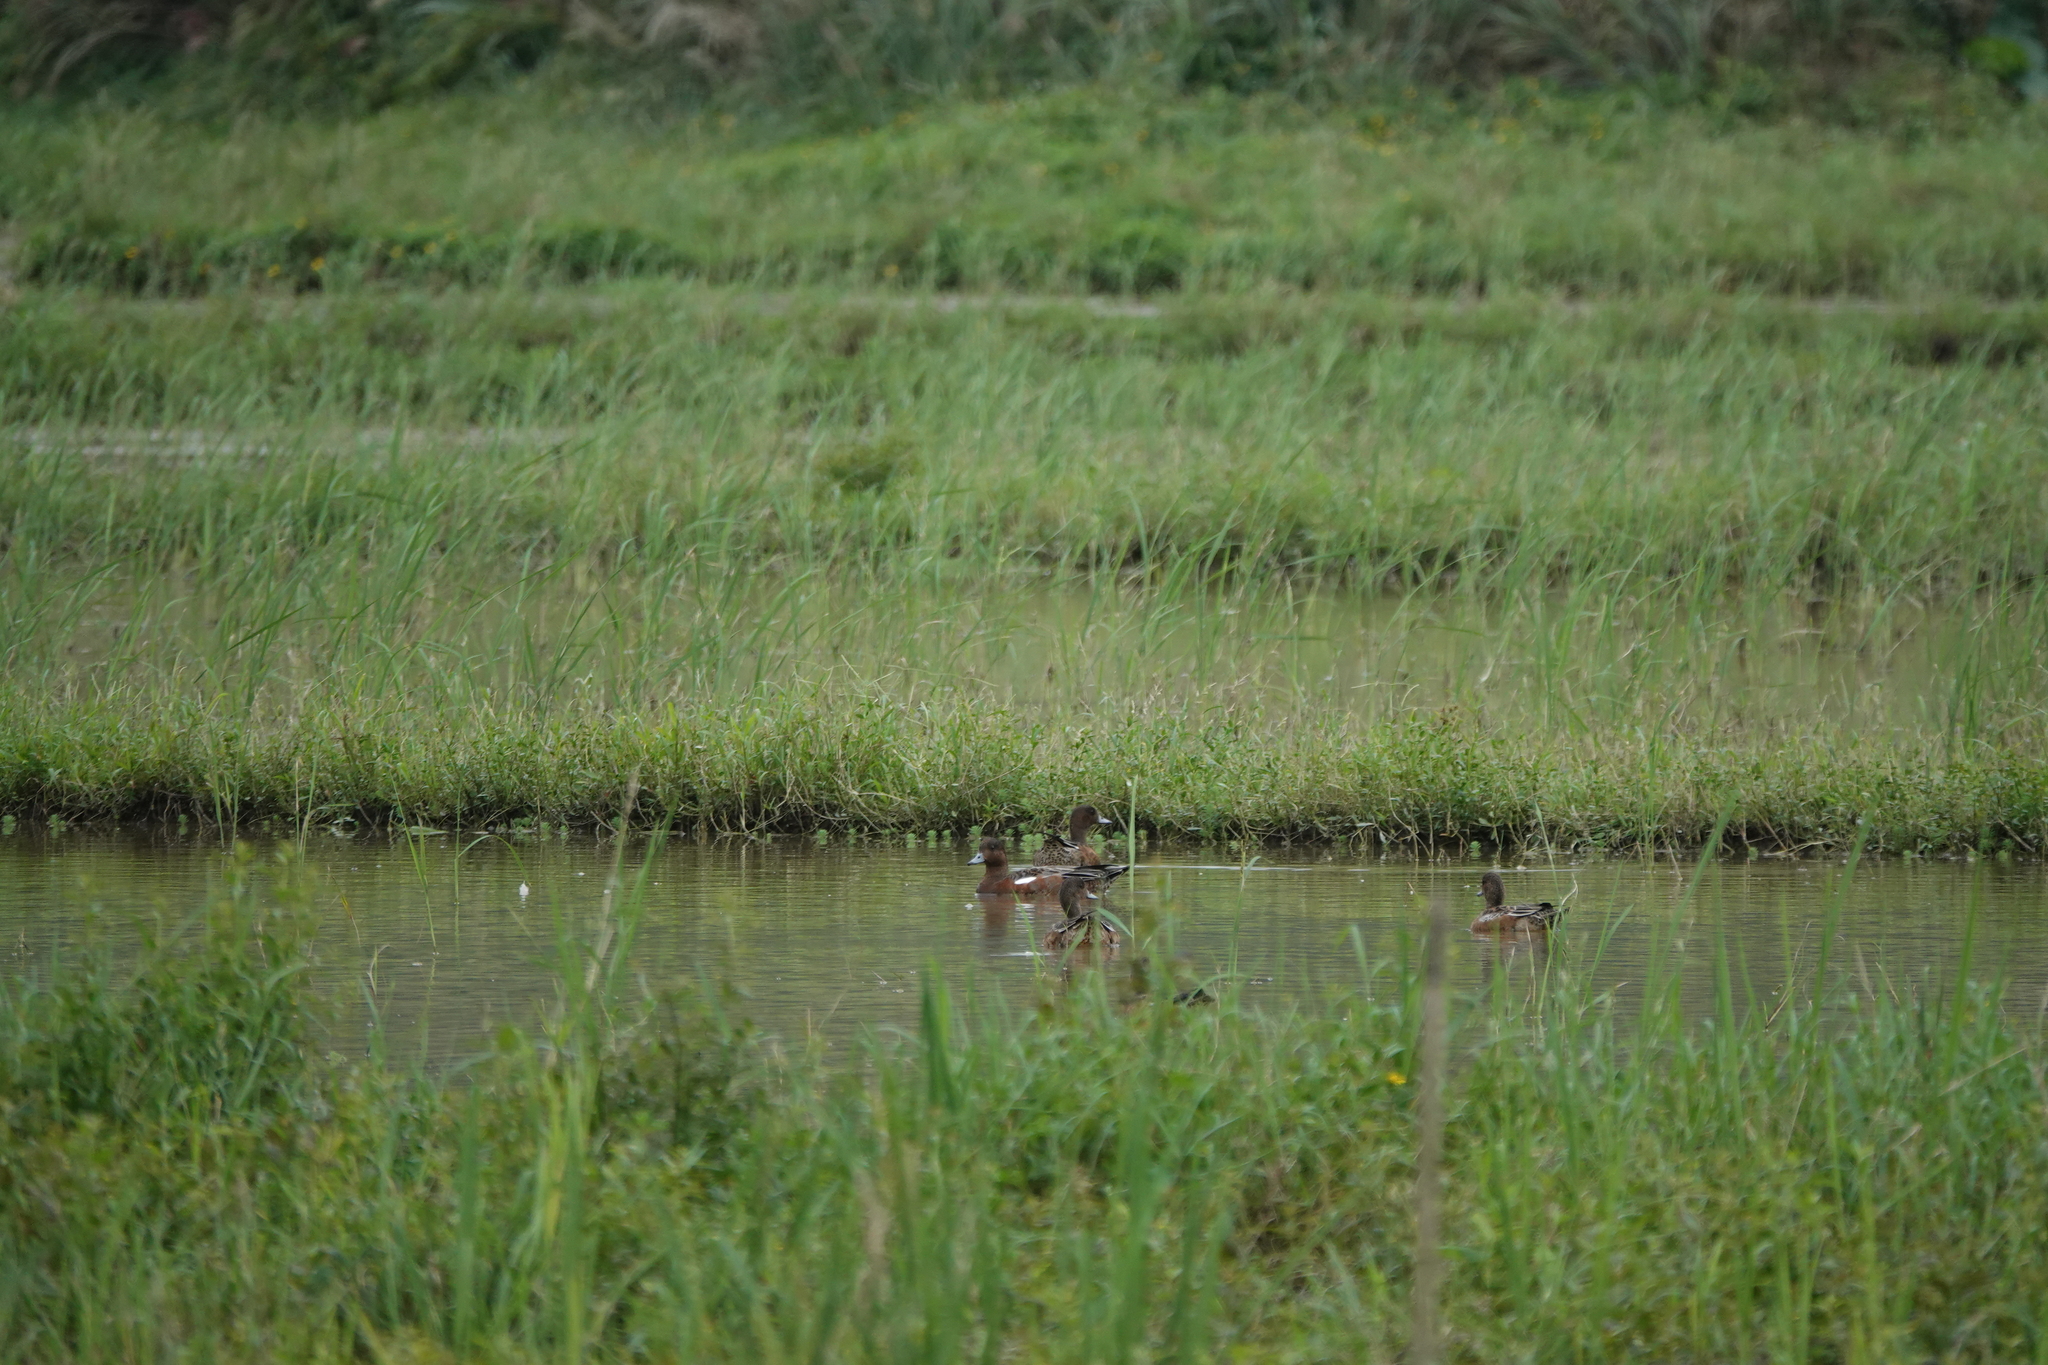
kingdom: Animalia
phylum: Chordata
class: Aves
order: Anseriformes
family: Anatidae
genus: Mareca
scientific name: Mareca penelope
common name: Eurasian wigeon
